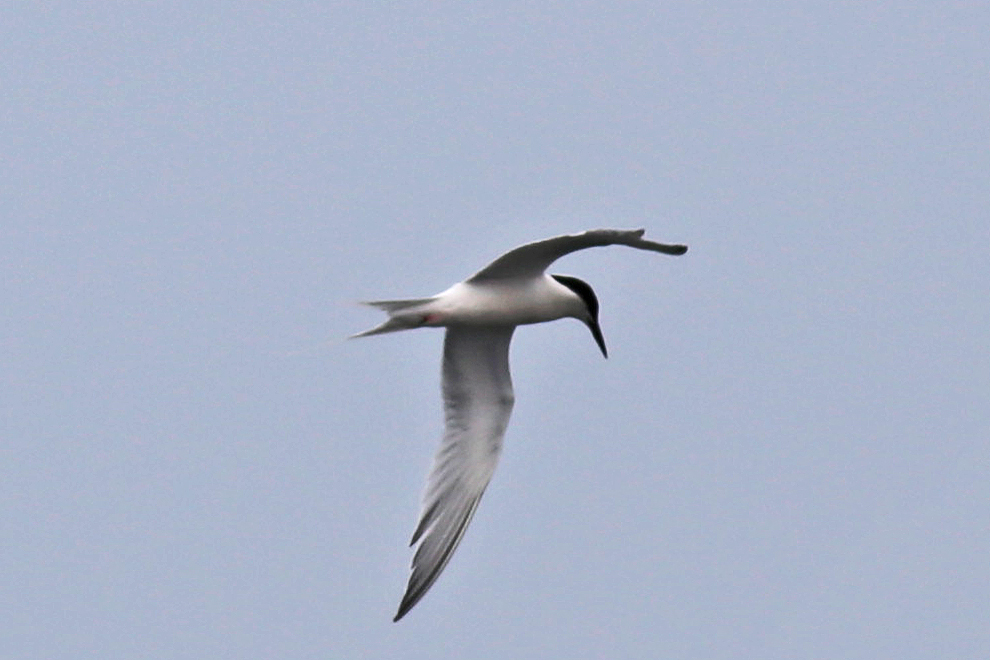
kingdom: Animalia
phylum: Chordata
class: Aves
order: Charadriiformes
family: Laridae
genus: Sterna
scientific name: Sterna dougallii
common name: Roseate tern
